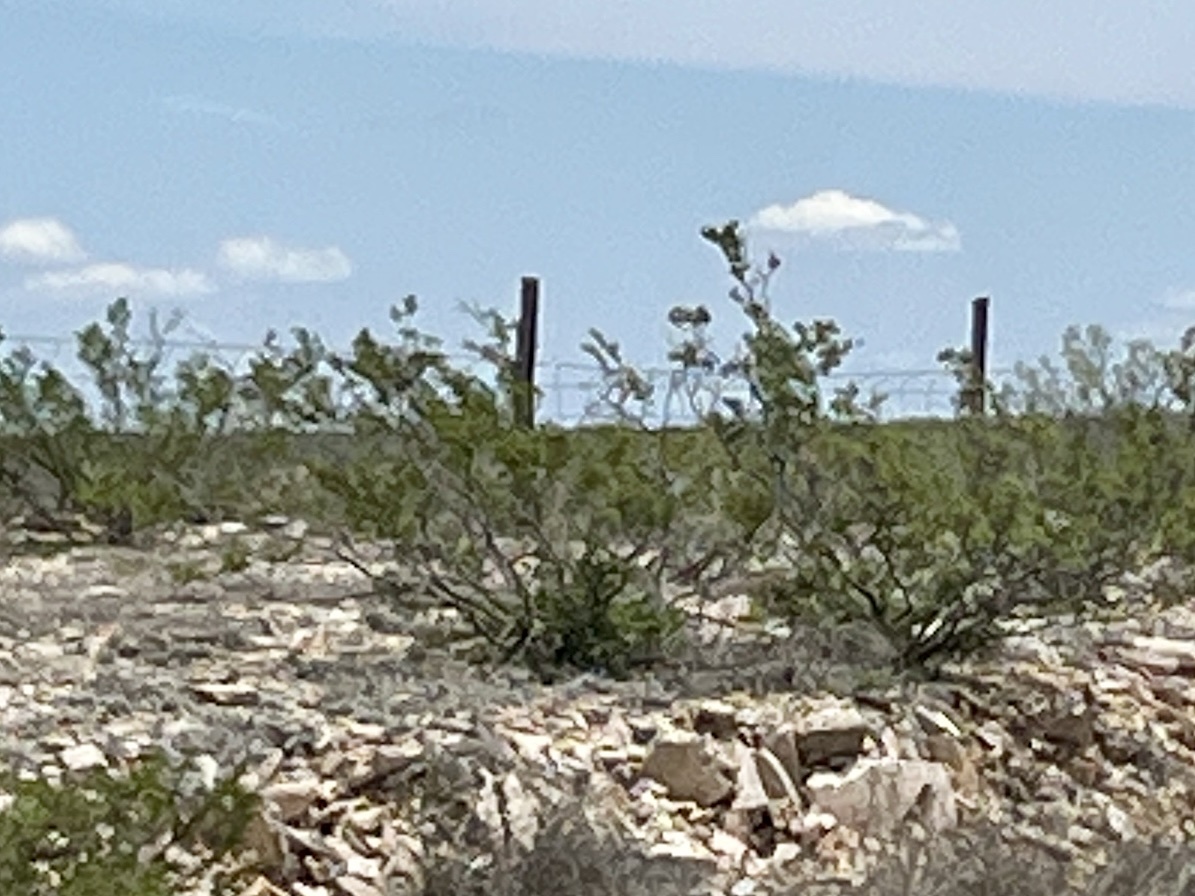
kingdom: Plantae
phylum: Tracheophyta
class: Magnoliopsida
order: Zygophyllales
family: Zygophyllaceae
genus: Larrea
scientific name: Larrea tridentata
